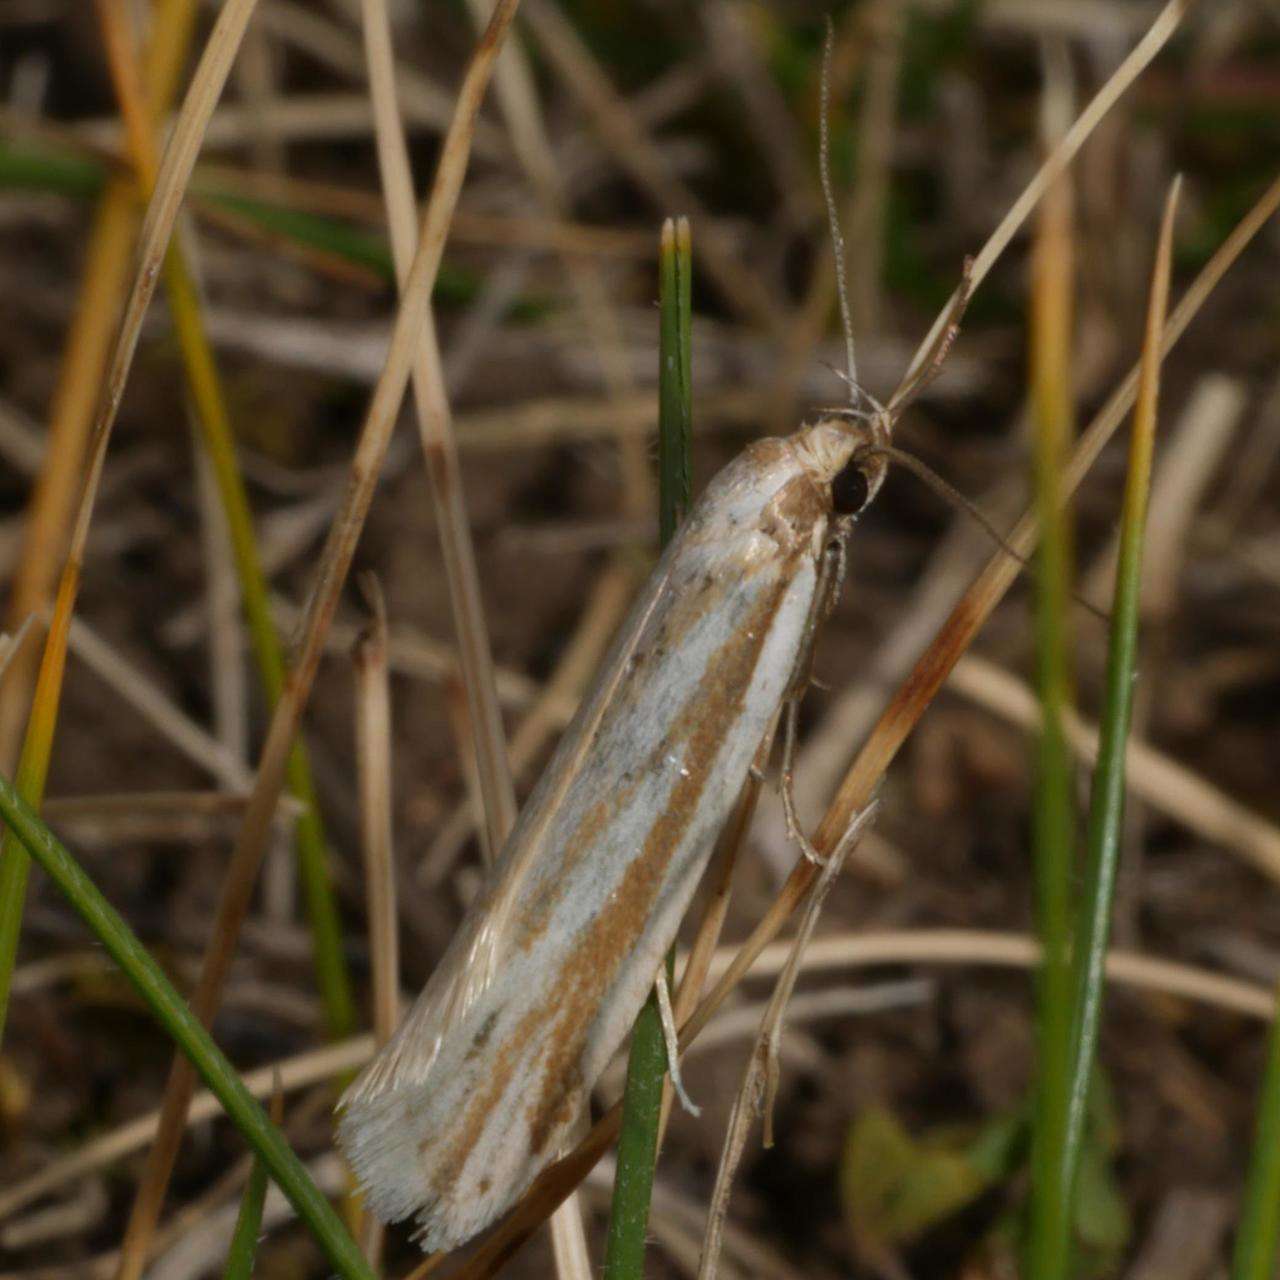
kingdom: Animalia
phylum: Arthropoda
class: Insecta
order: Lepidoptera
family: Oecophoridae
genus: Philobota
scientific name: Philobota agnesella
